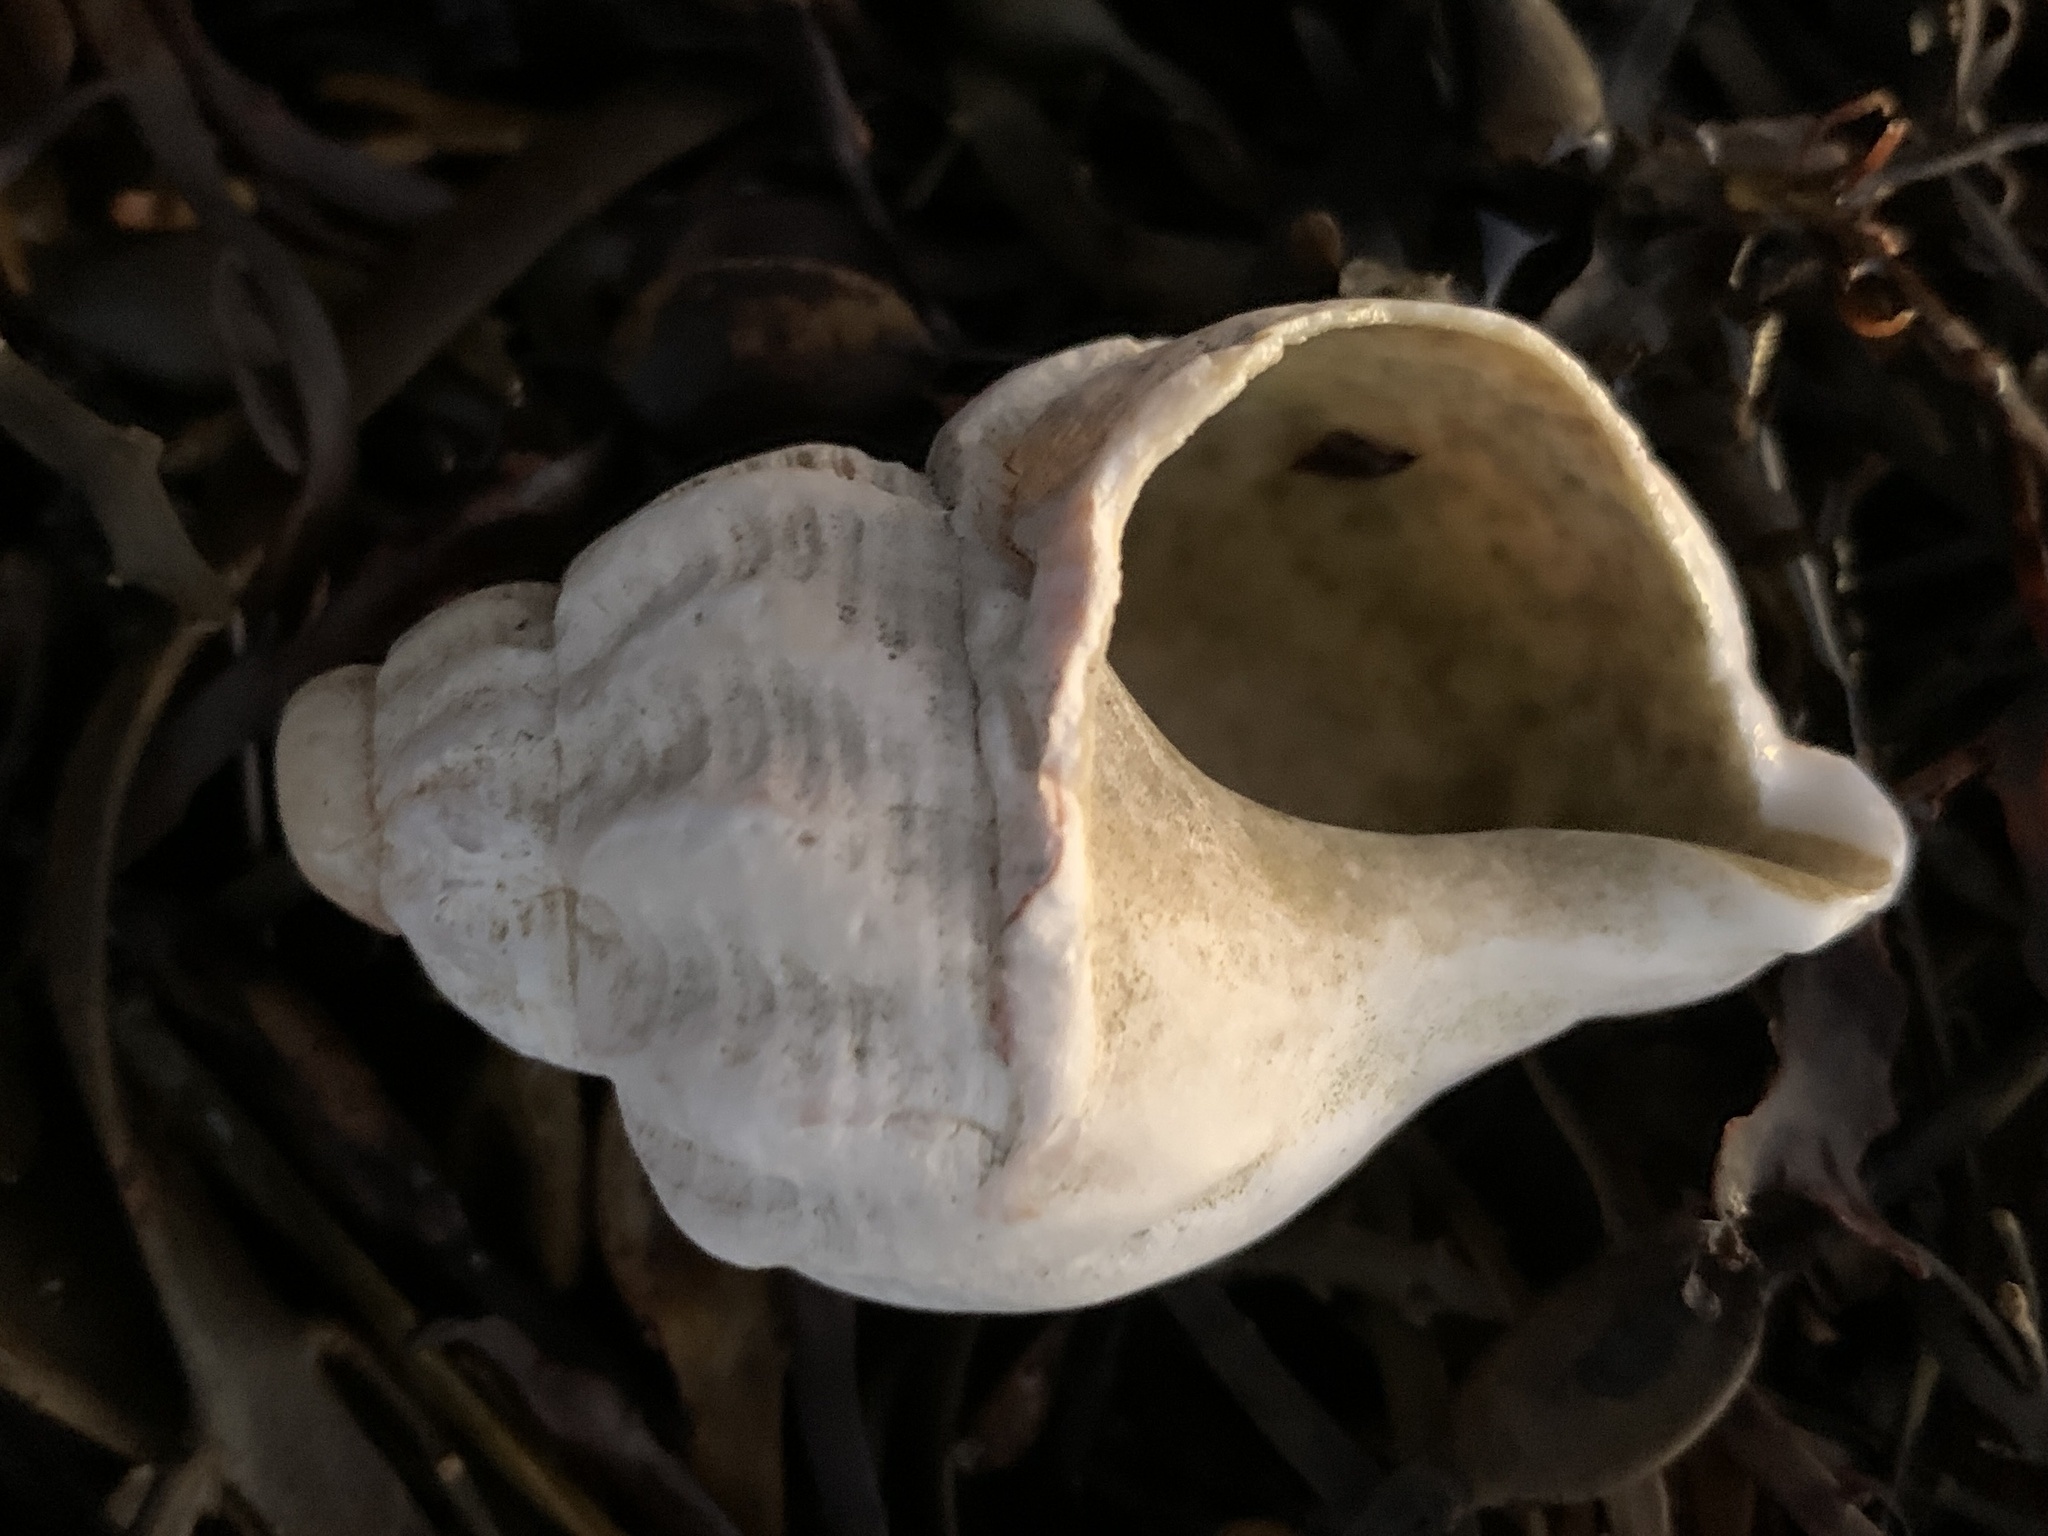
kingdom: Animalia
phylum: Mollusca
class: Gastropoda
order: Neogastropoda
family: Buccinidae
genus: Buccinum
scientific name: Buccinum undatum
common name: Common whelk
